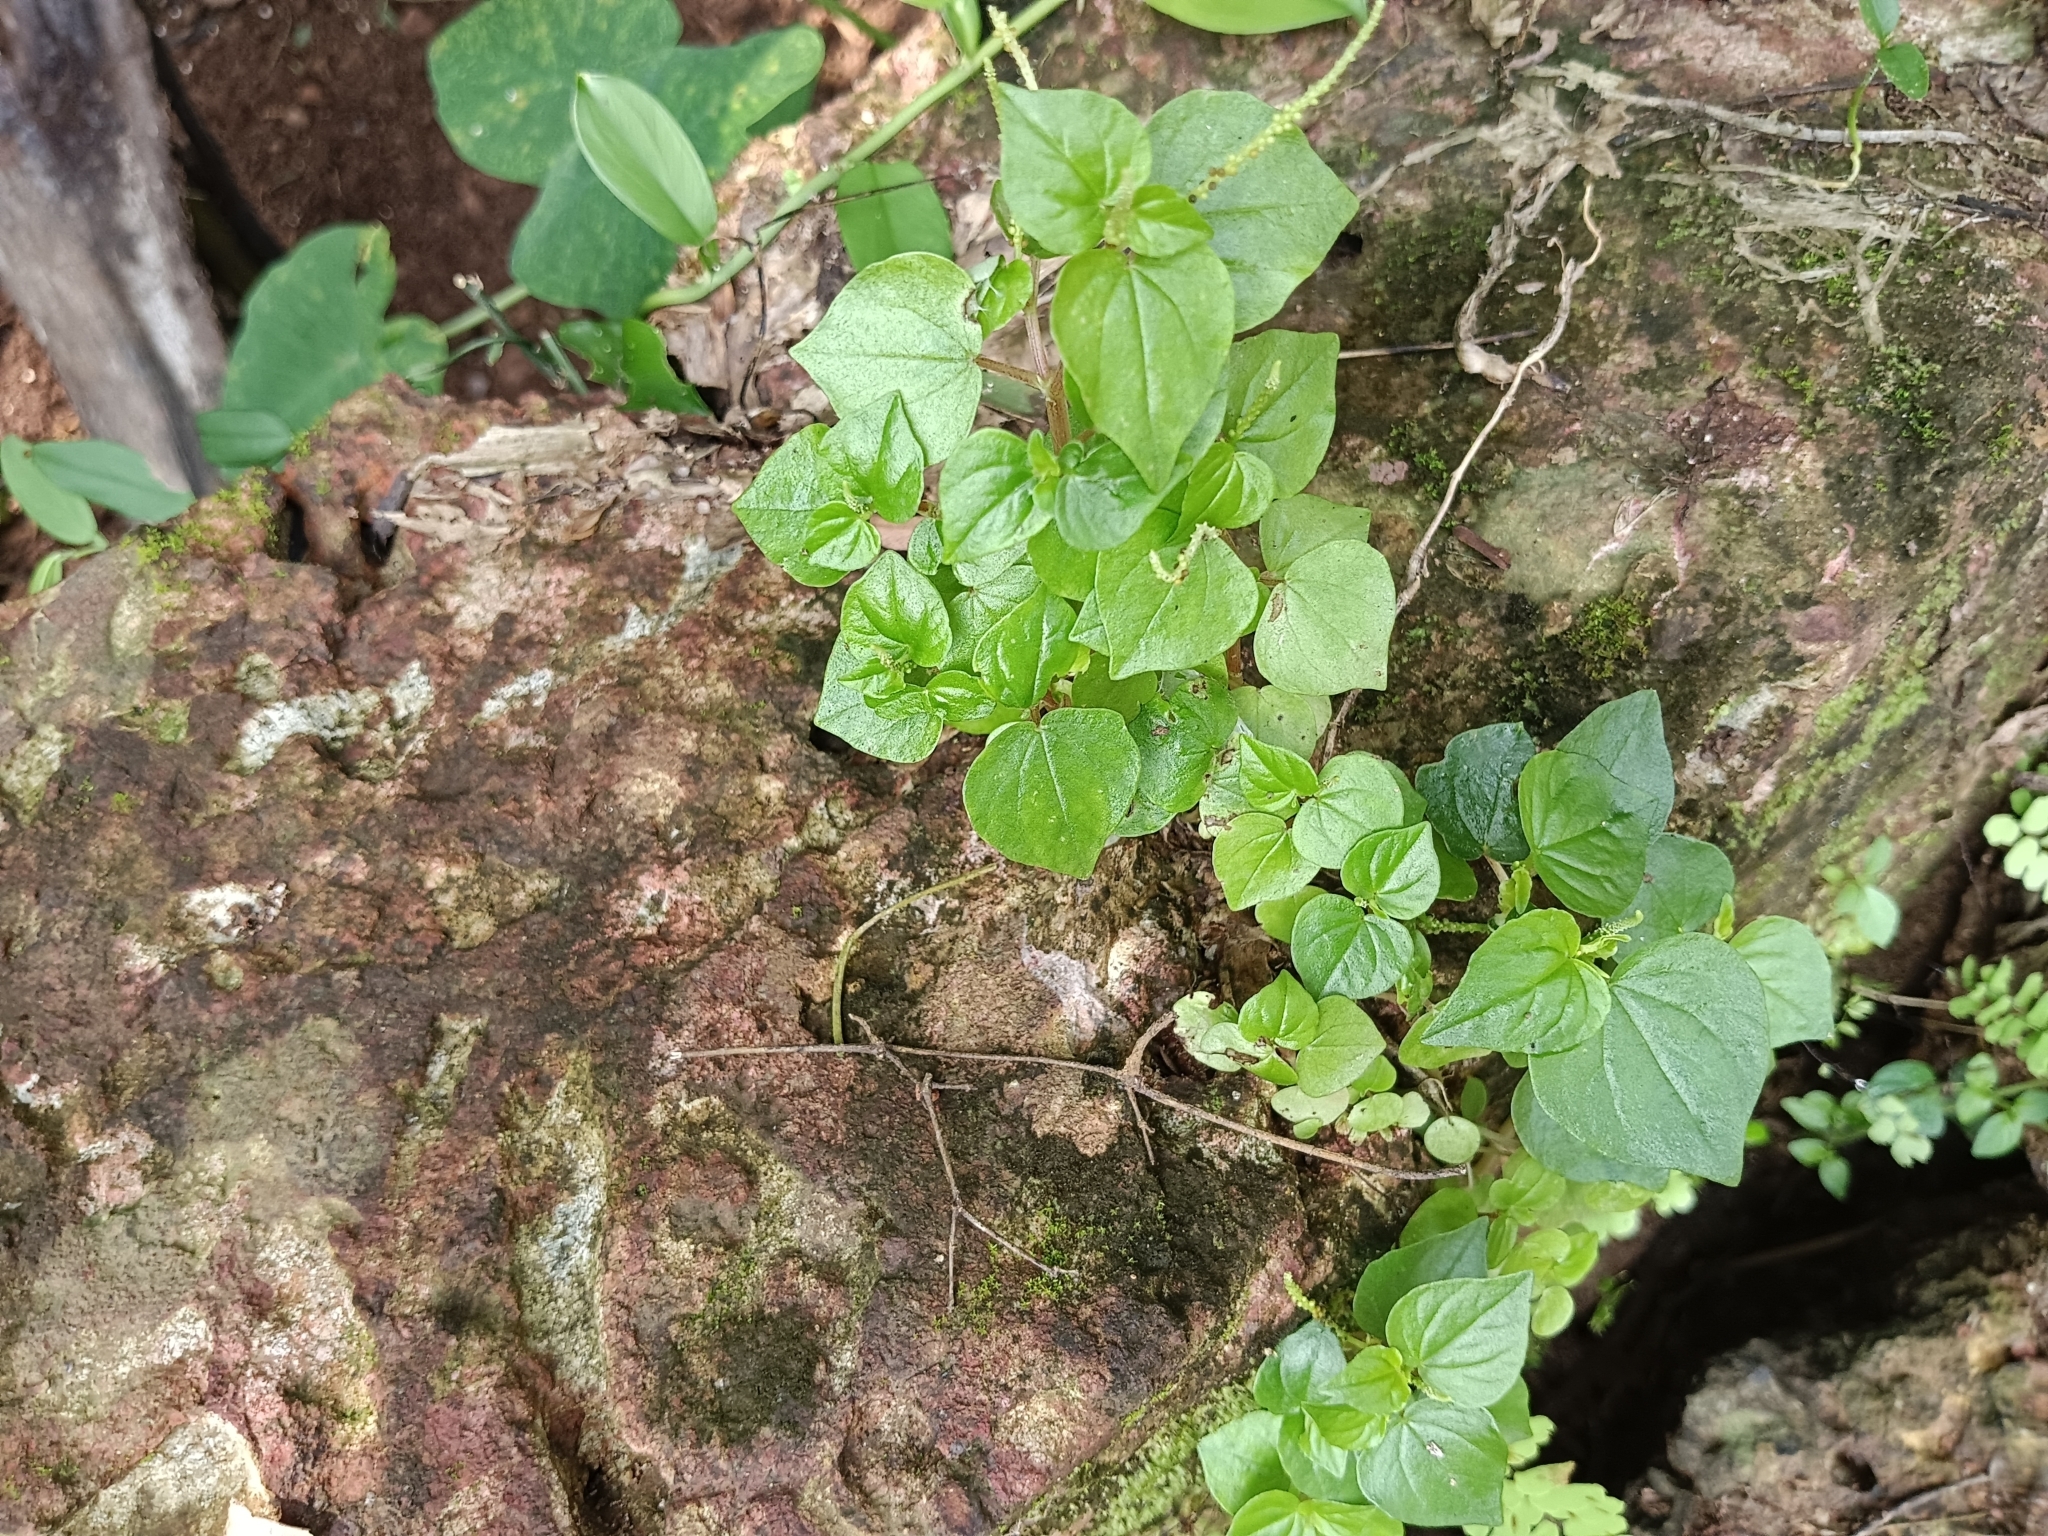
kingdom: Plantae
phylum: Tracheophyta
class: Magnoliopsida
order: Piperales
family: Piperaceae
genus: Peperomia
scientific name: Peperomia pellucida
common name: Man to man
